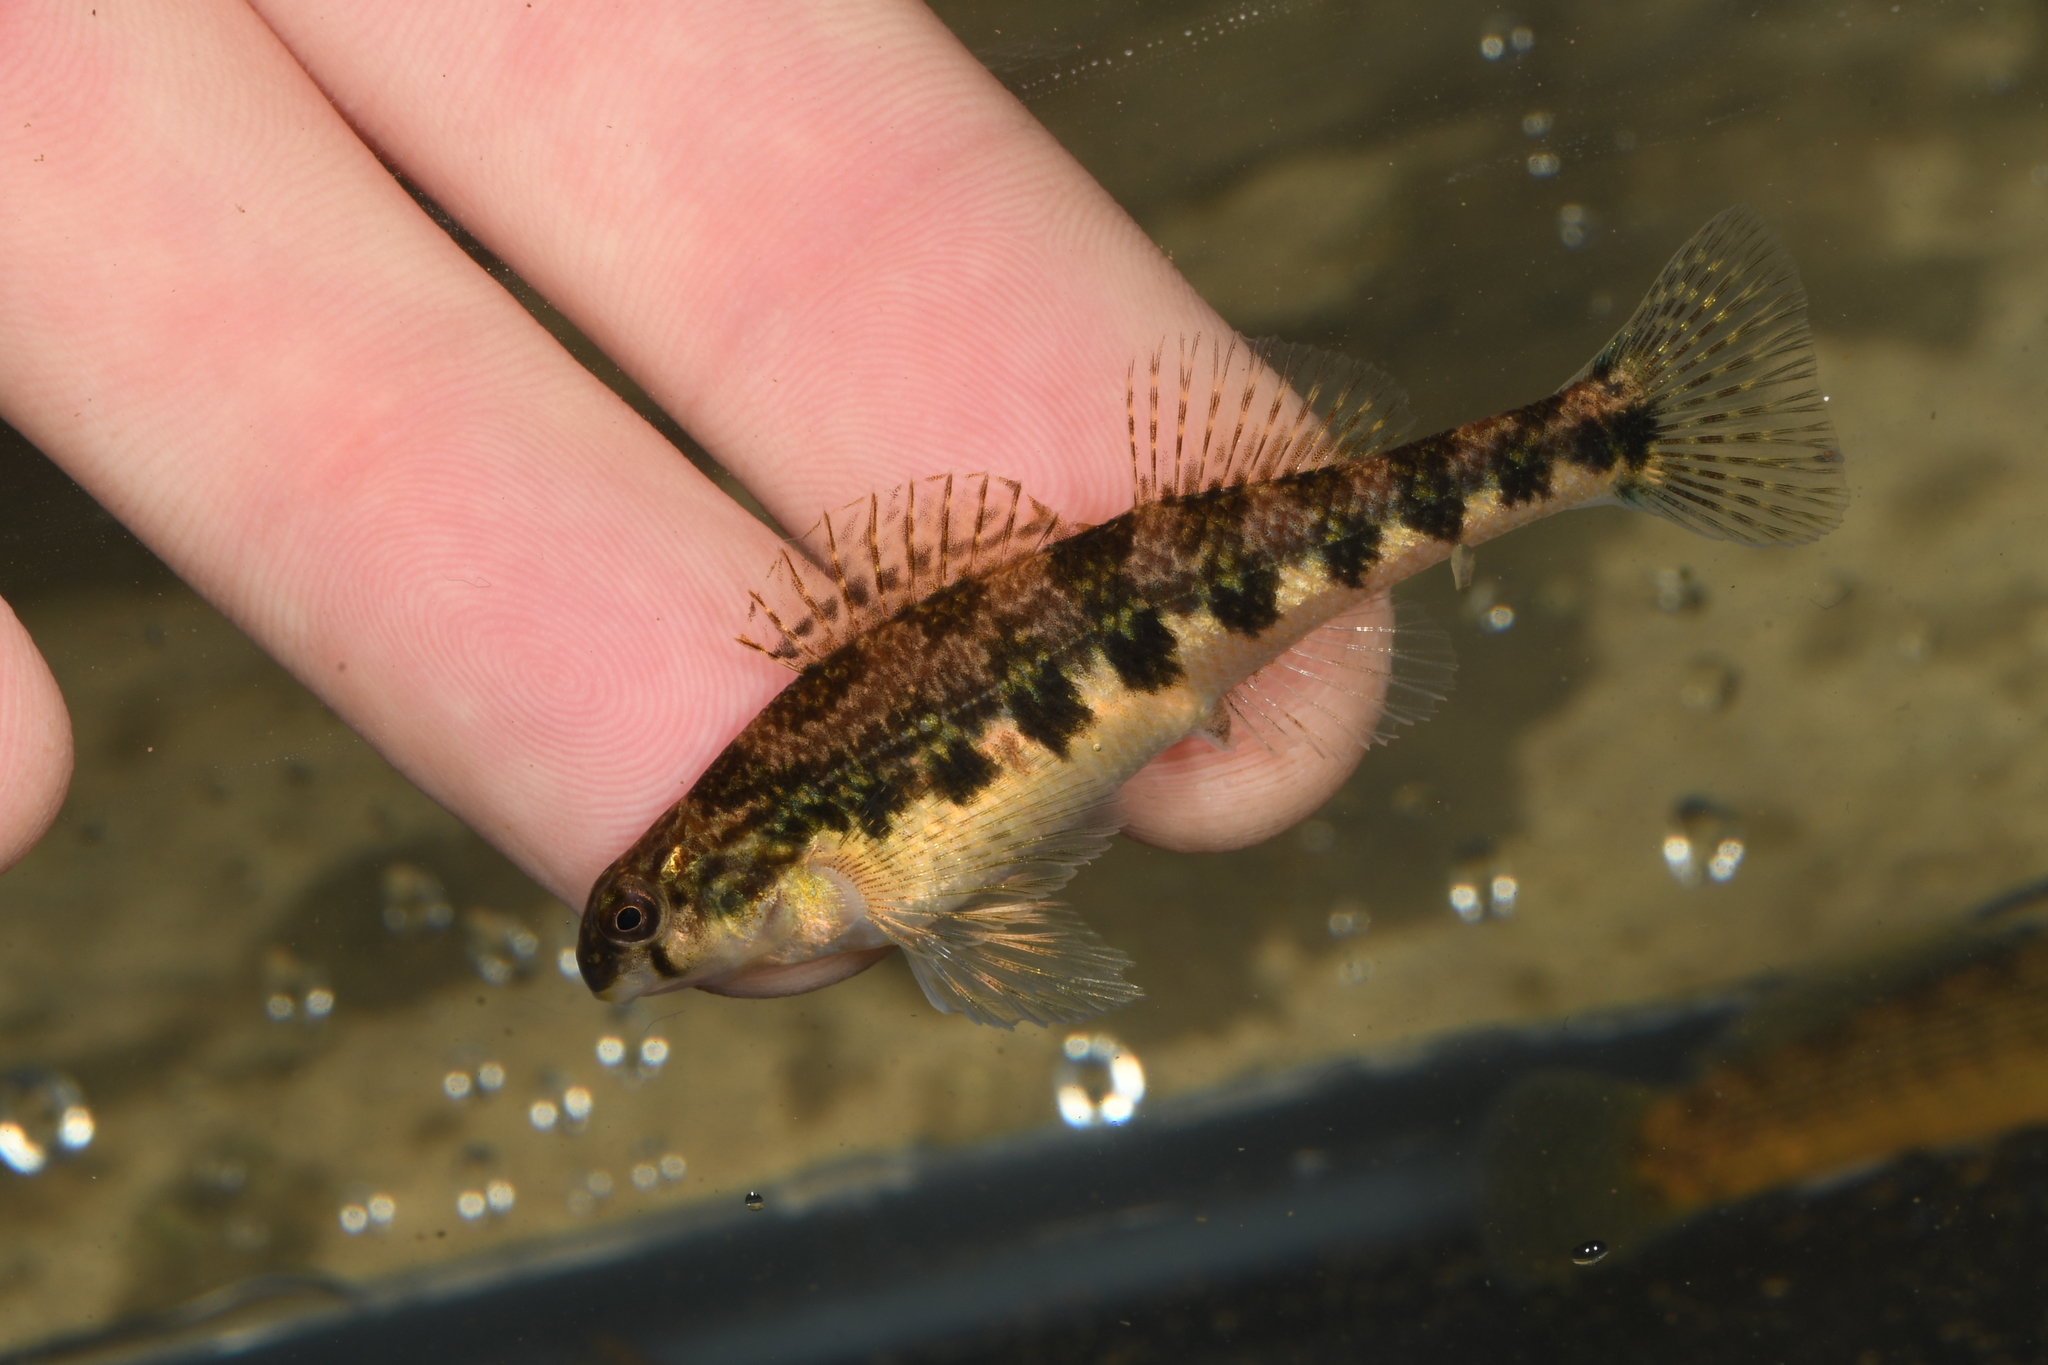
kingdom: Animalia
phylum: Chordata
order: Perciformes
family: Percidae
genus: Etheostoma
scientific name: Etheostoma flavum
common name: Saffron darter
